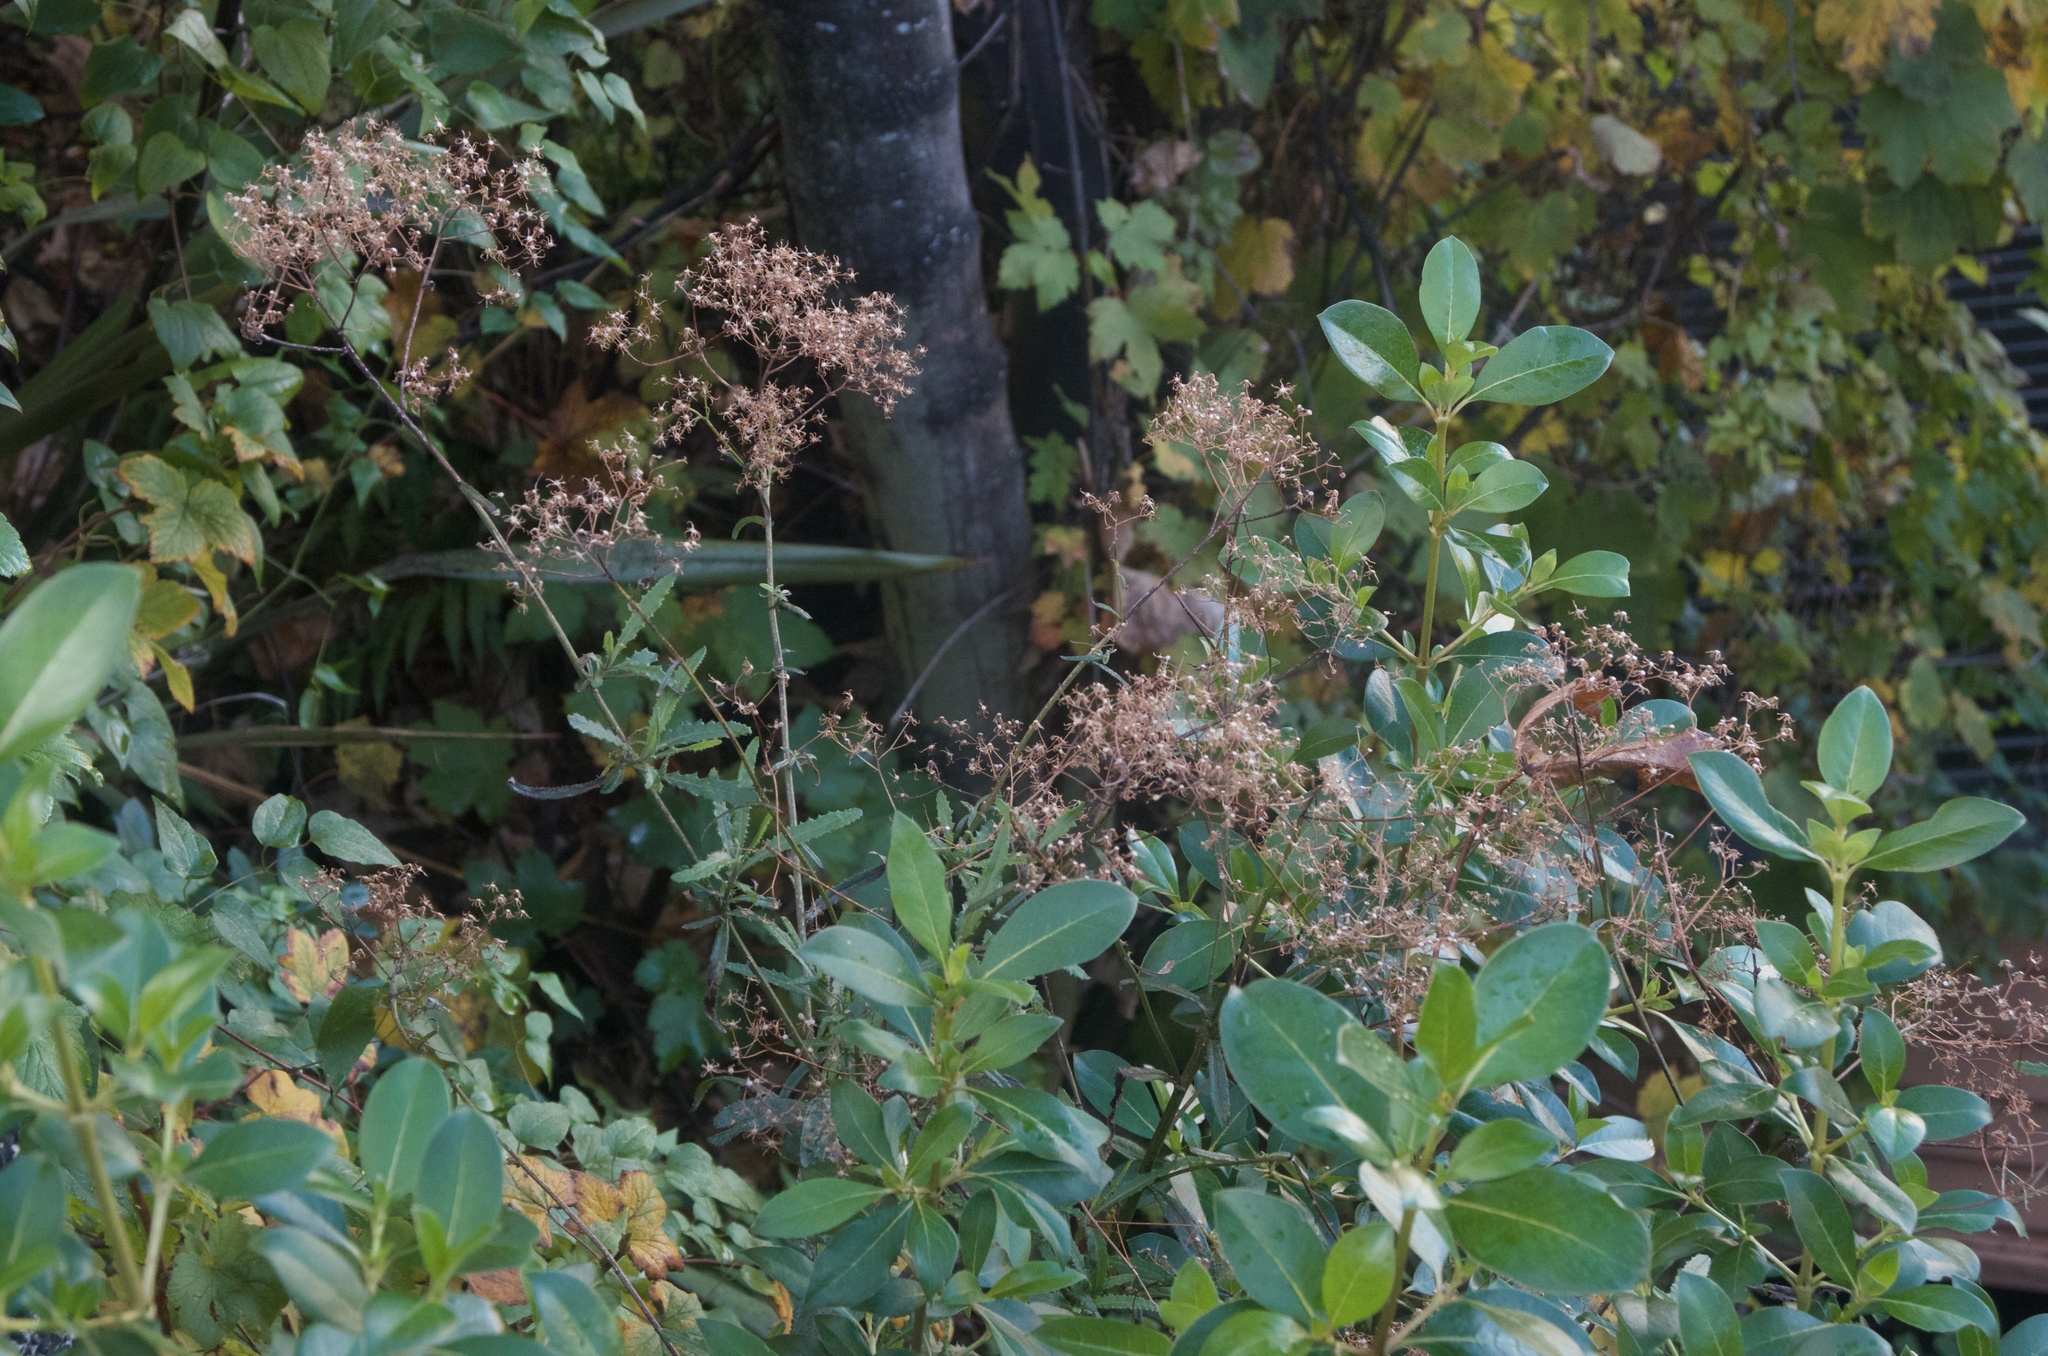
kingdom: Plantae
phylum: Tracheophyta
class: Magnoliopsida
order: Asterales
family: Asteraceae
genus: Senecio
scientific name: Senecio minimus
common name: Toothed fireweed
